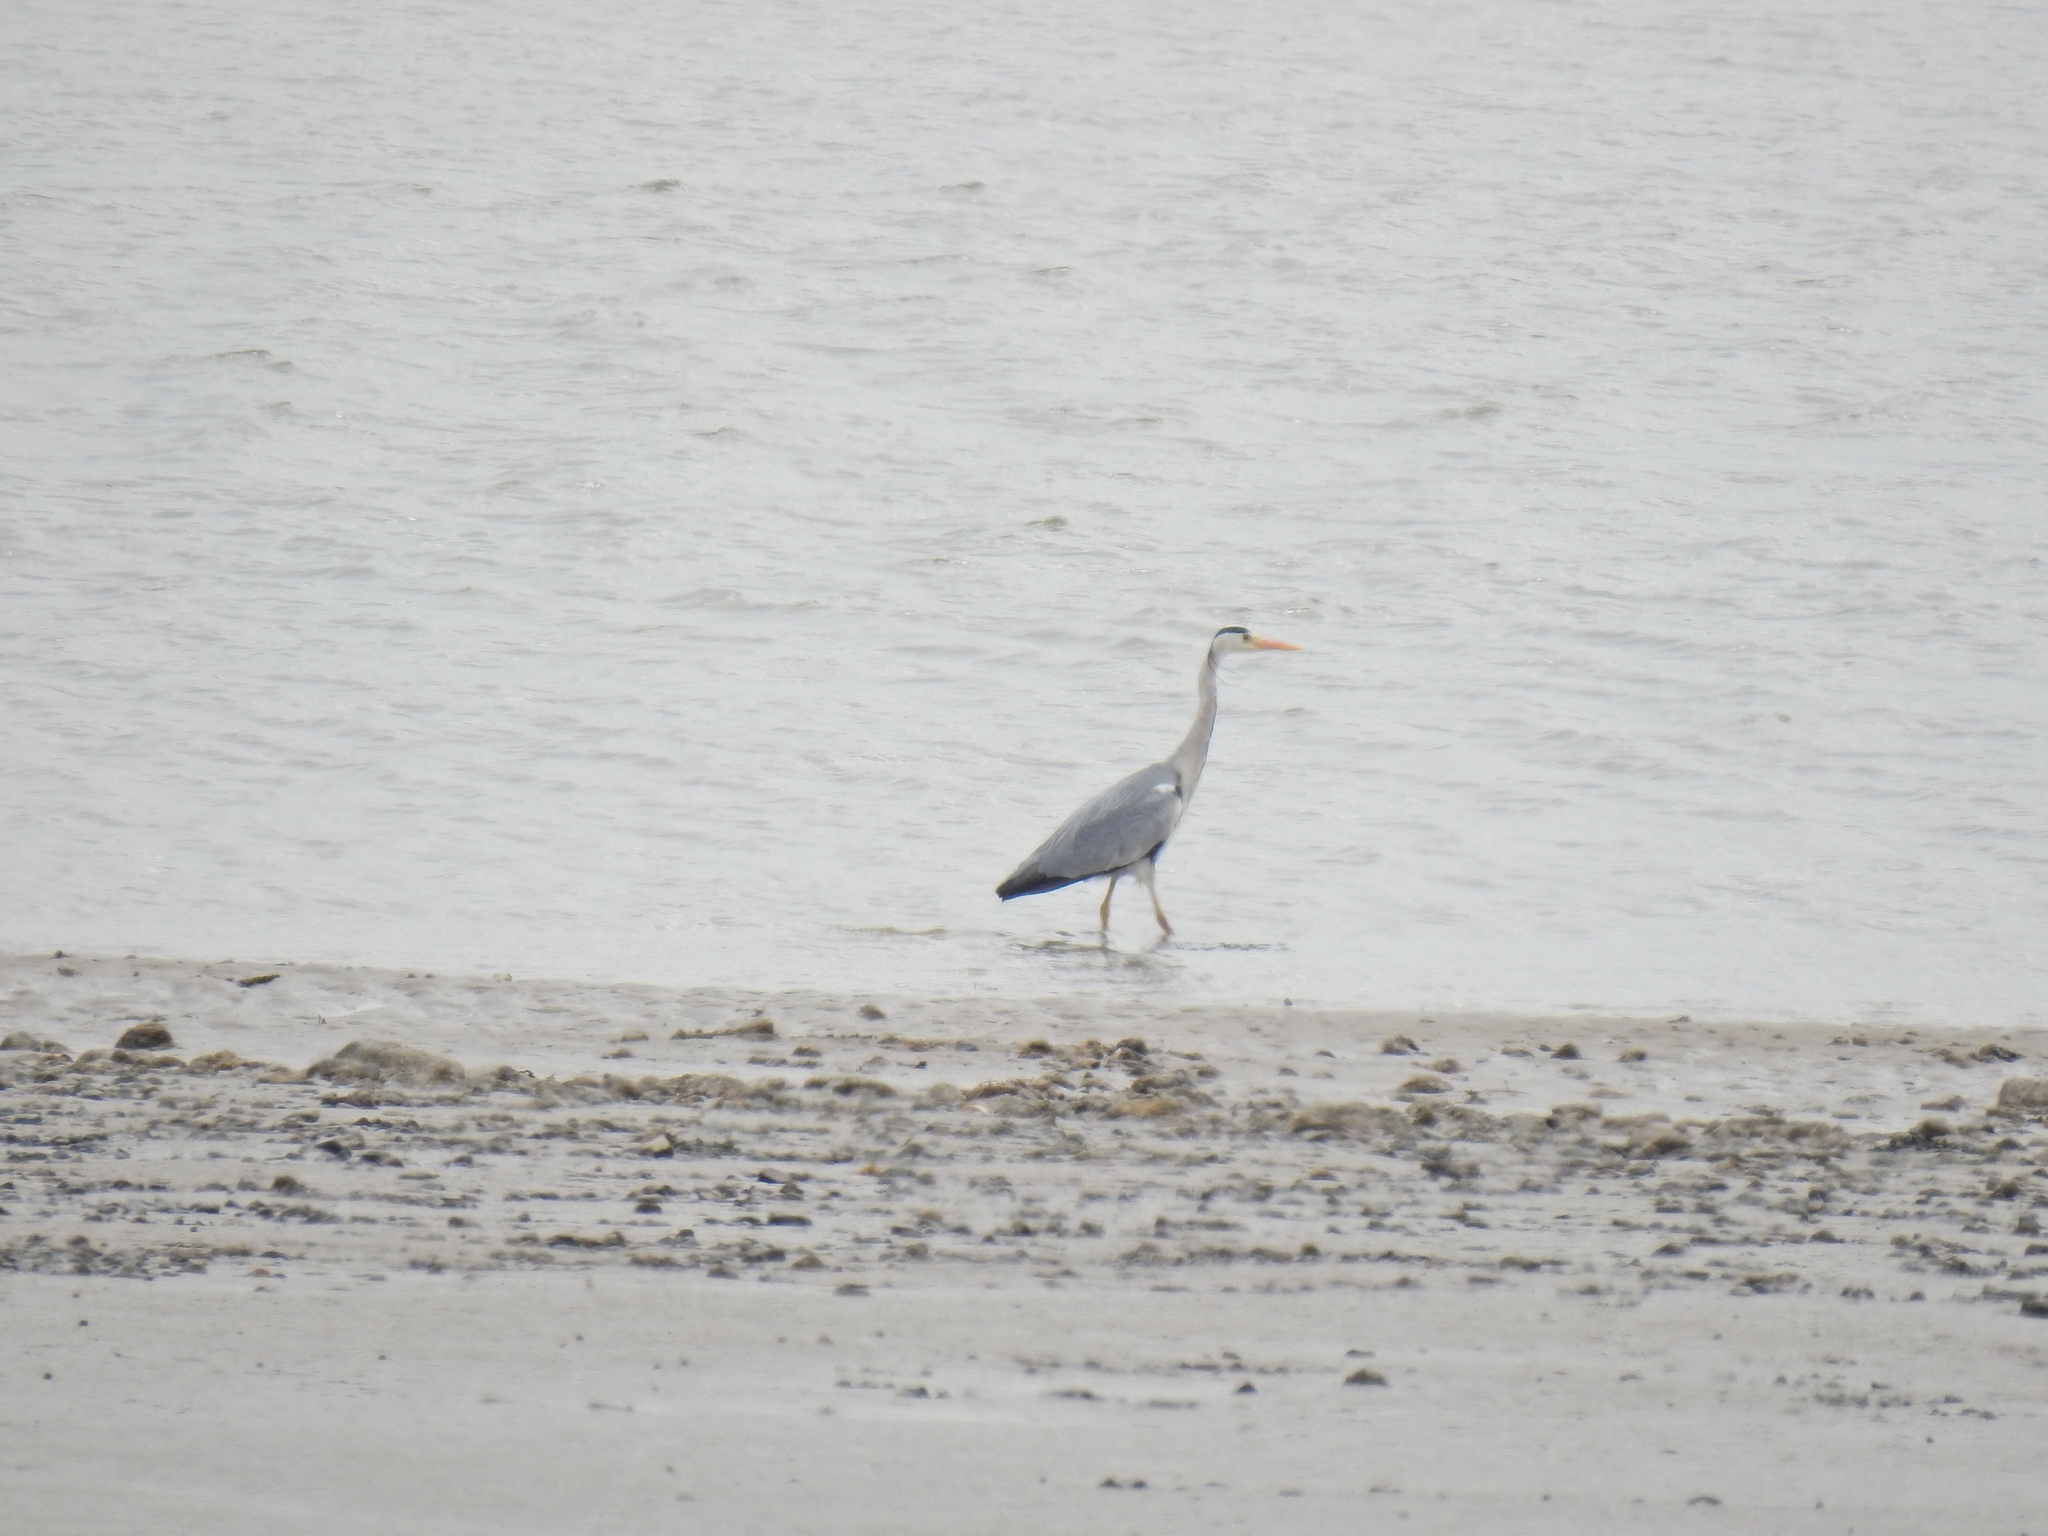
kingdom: Animalia
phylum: Chordata
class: Aves
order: Pelecaniformes
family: Ardeidae
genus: Ardea
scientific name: Ardea cinerea
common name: Grey heron
